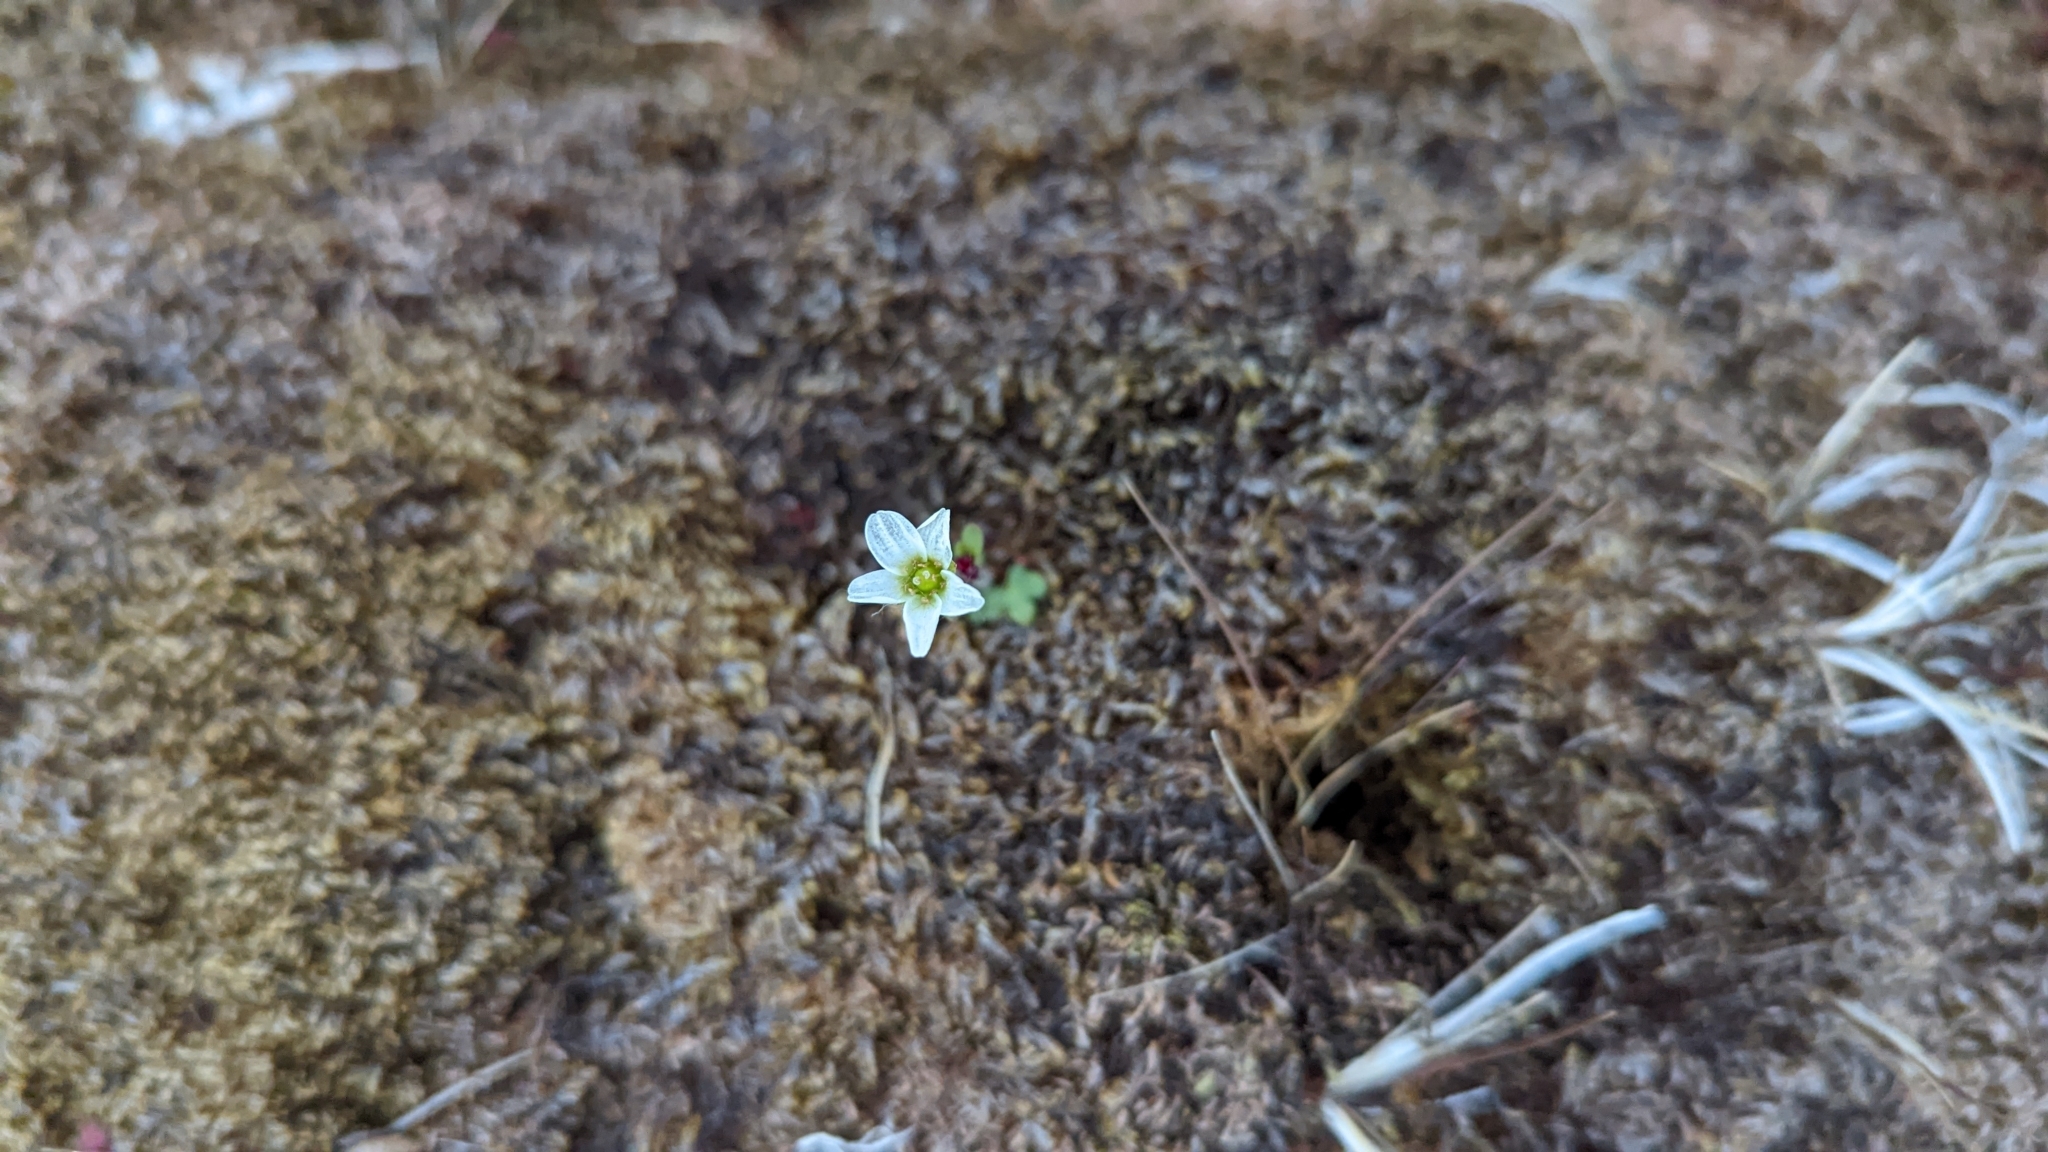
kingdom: Plantae
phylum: Tracheophyta
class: Magnoliopsida
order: Saxifragales
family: Saxifragaceae
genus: Saxifraga
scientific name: Saxifraga cernua
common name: Drooping saxifrage
